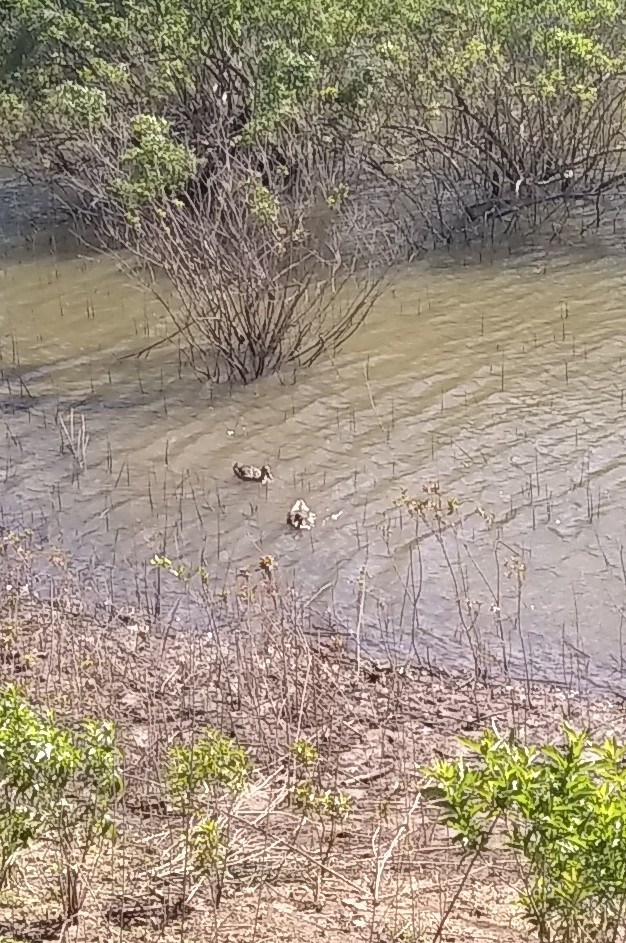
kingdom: Animalia
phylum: Chordata
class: Aves
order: Anseriformes
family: Anatidae
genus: Anas
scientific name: Anas platyrhynchos
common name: Mallard
